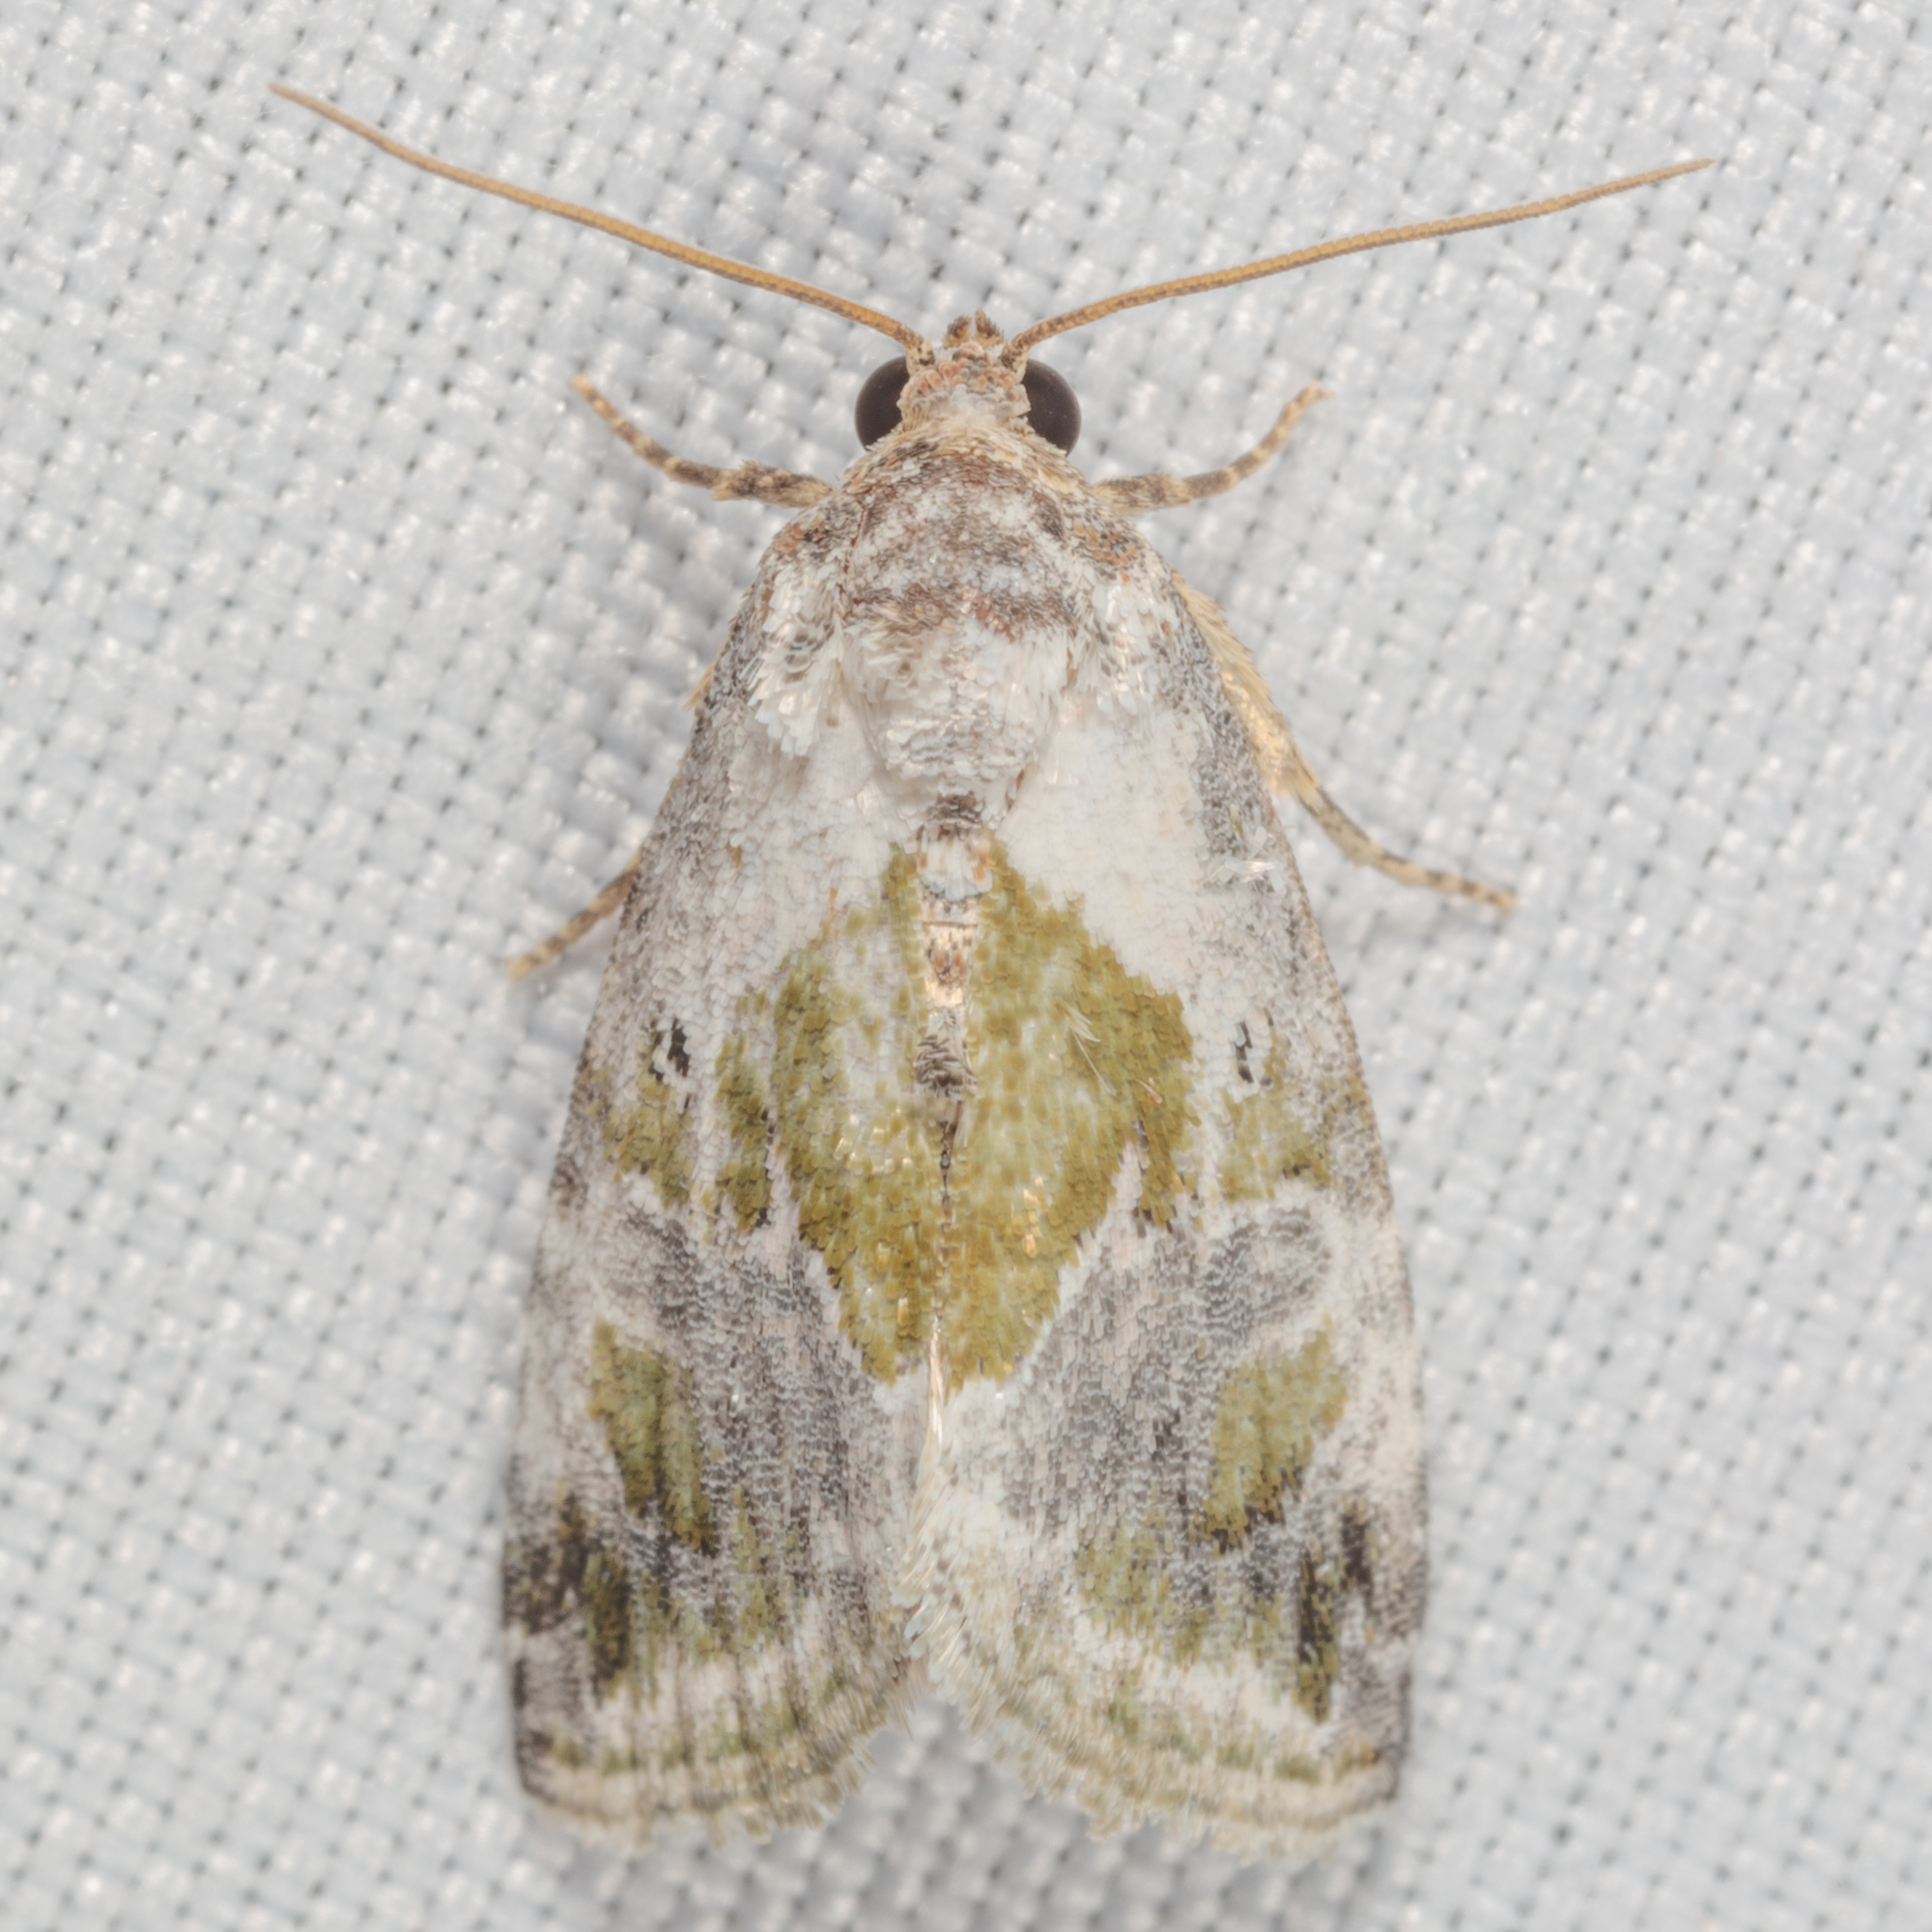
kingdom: Animalia
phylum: Arthropoda
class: Insecta
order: Lepidoptera
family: Noctuidae
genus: Maliattha
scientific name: Maliattha synochitis
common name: Black-dotted glyph
